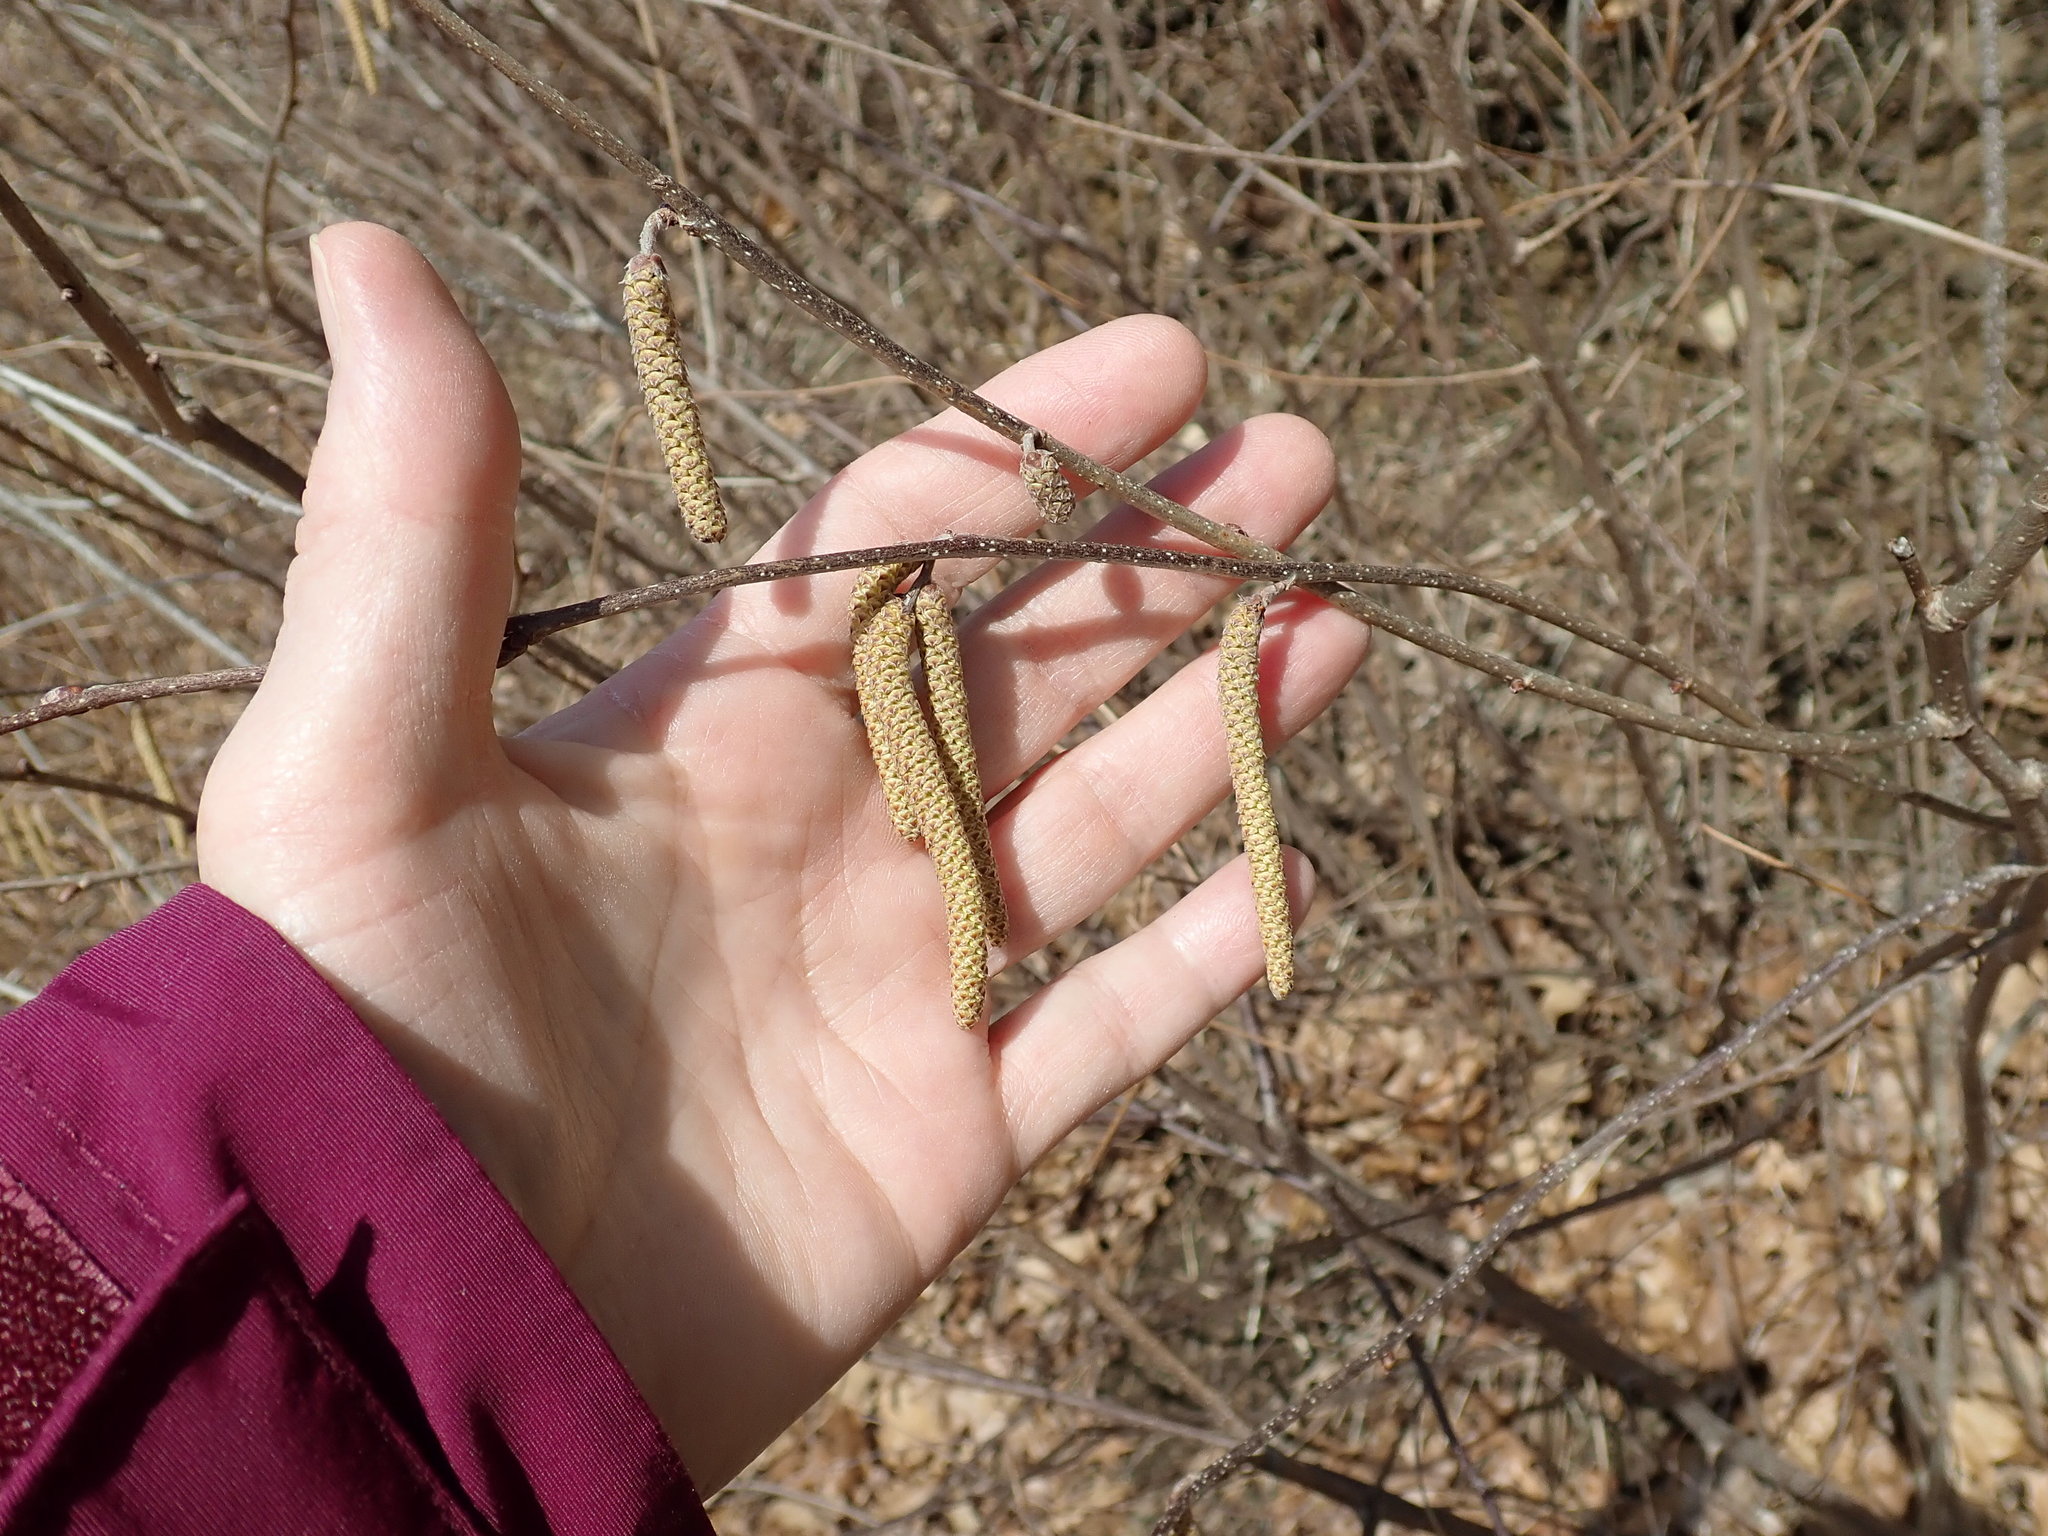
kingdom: Plantae
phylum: Tracheophyta
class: Magnoliopsida
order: Fagales
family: Betulaceae
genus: Corylus
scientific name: Corylus
